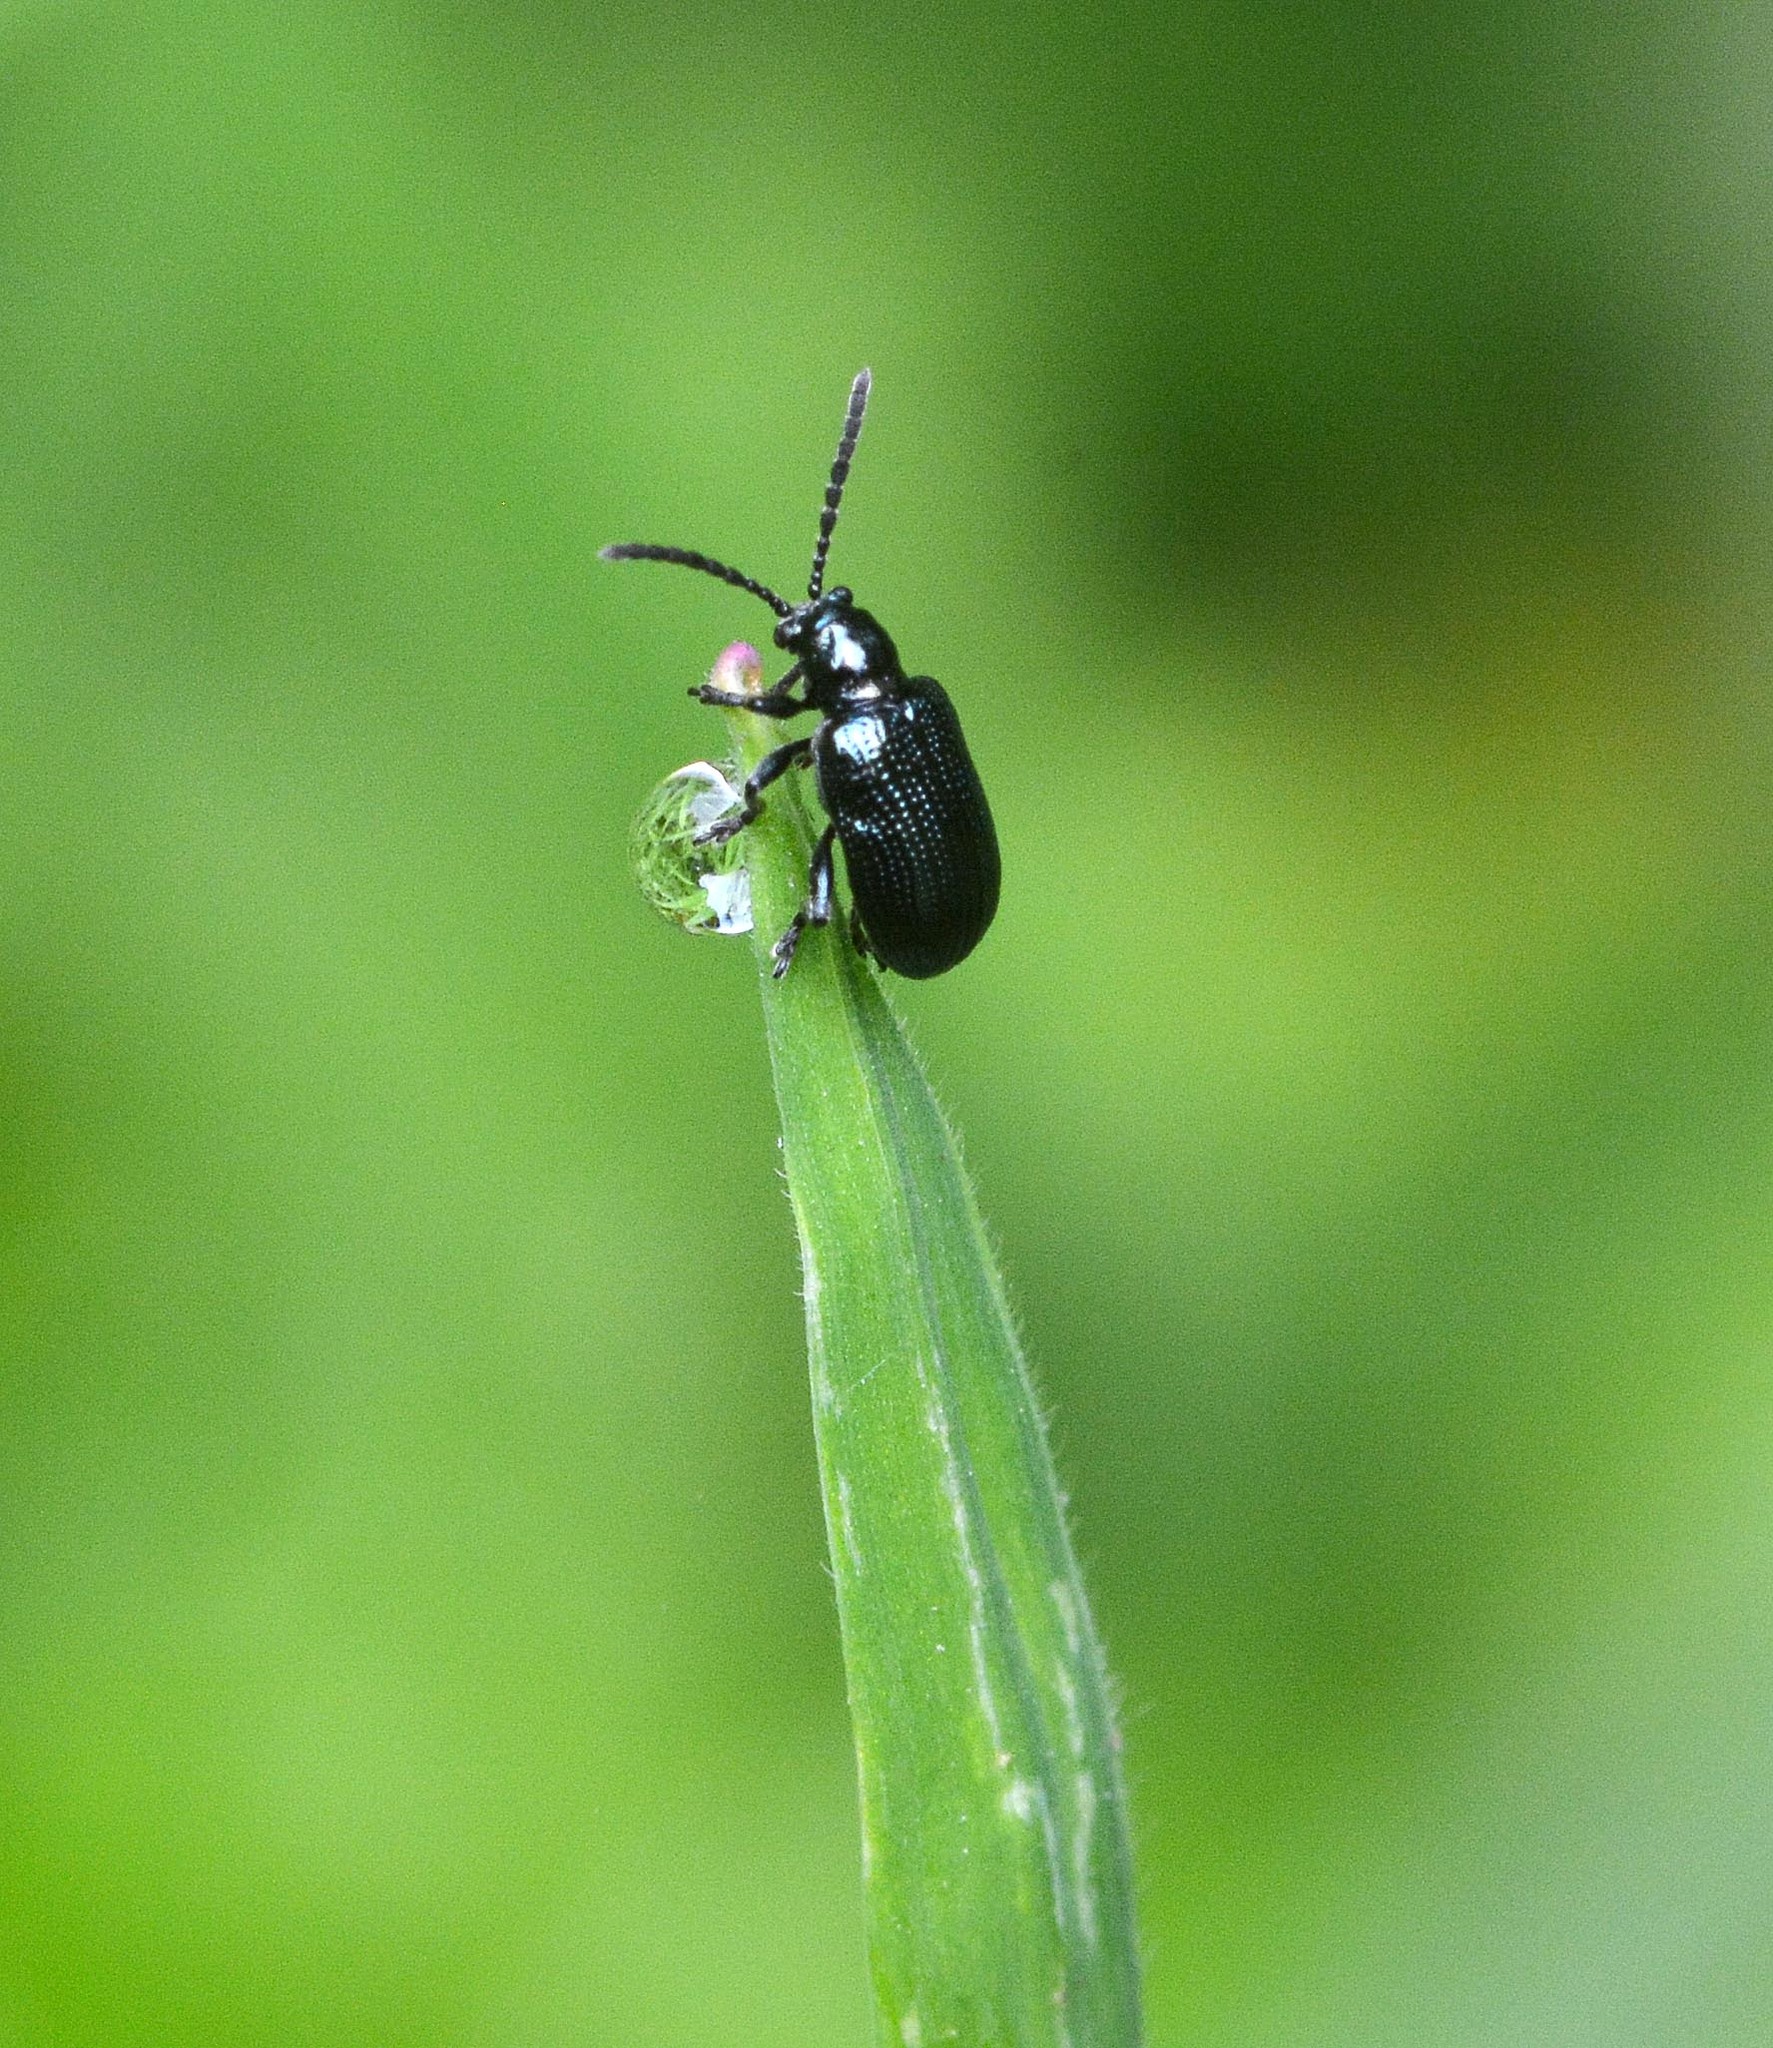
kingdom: Animalia
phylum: Arthropoda
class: Insecta
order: Coleoptera
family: Chrysomelidae
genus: Oulema
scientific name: Oulema gallaeciana
